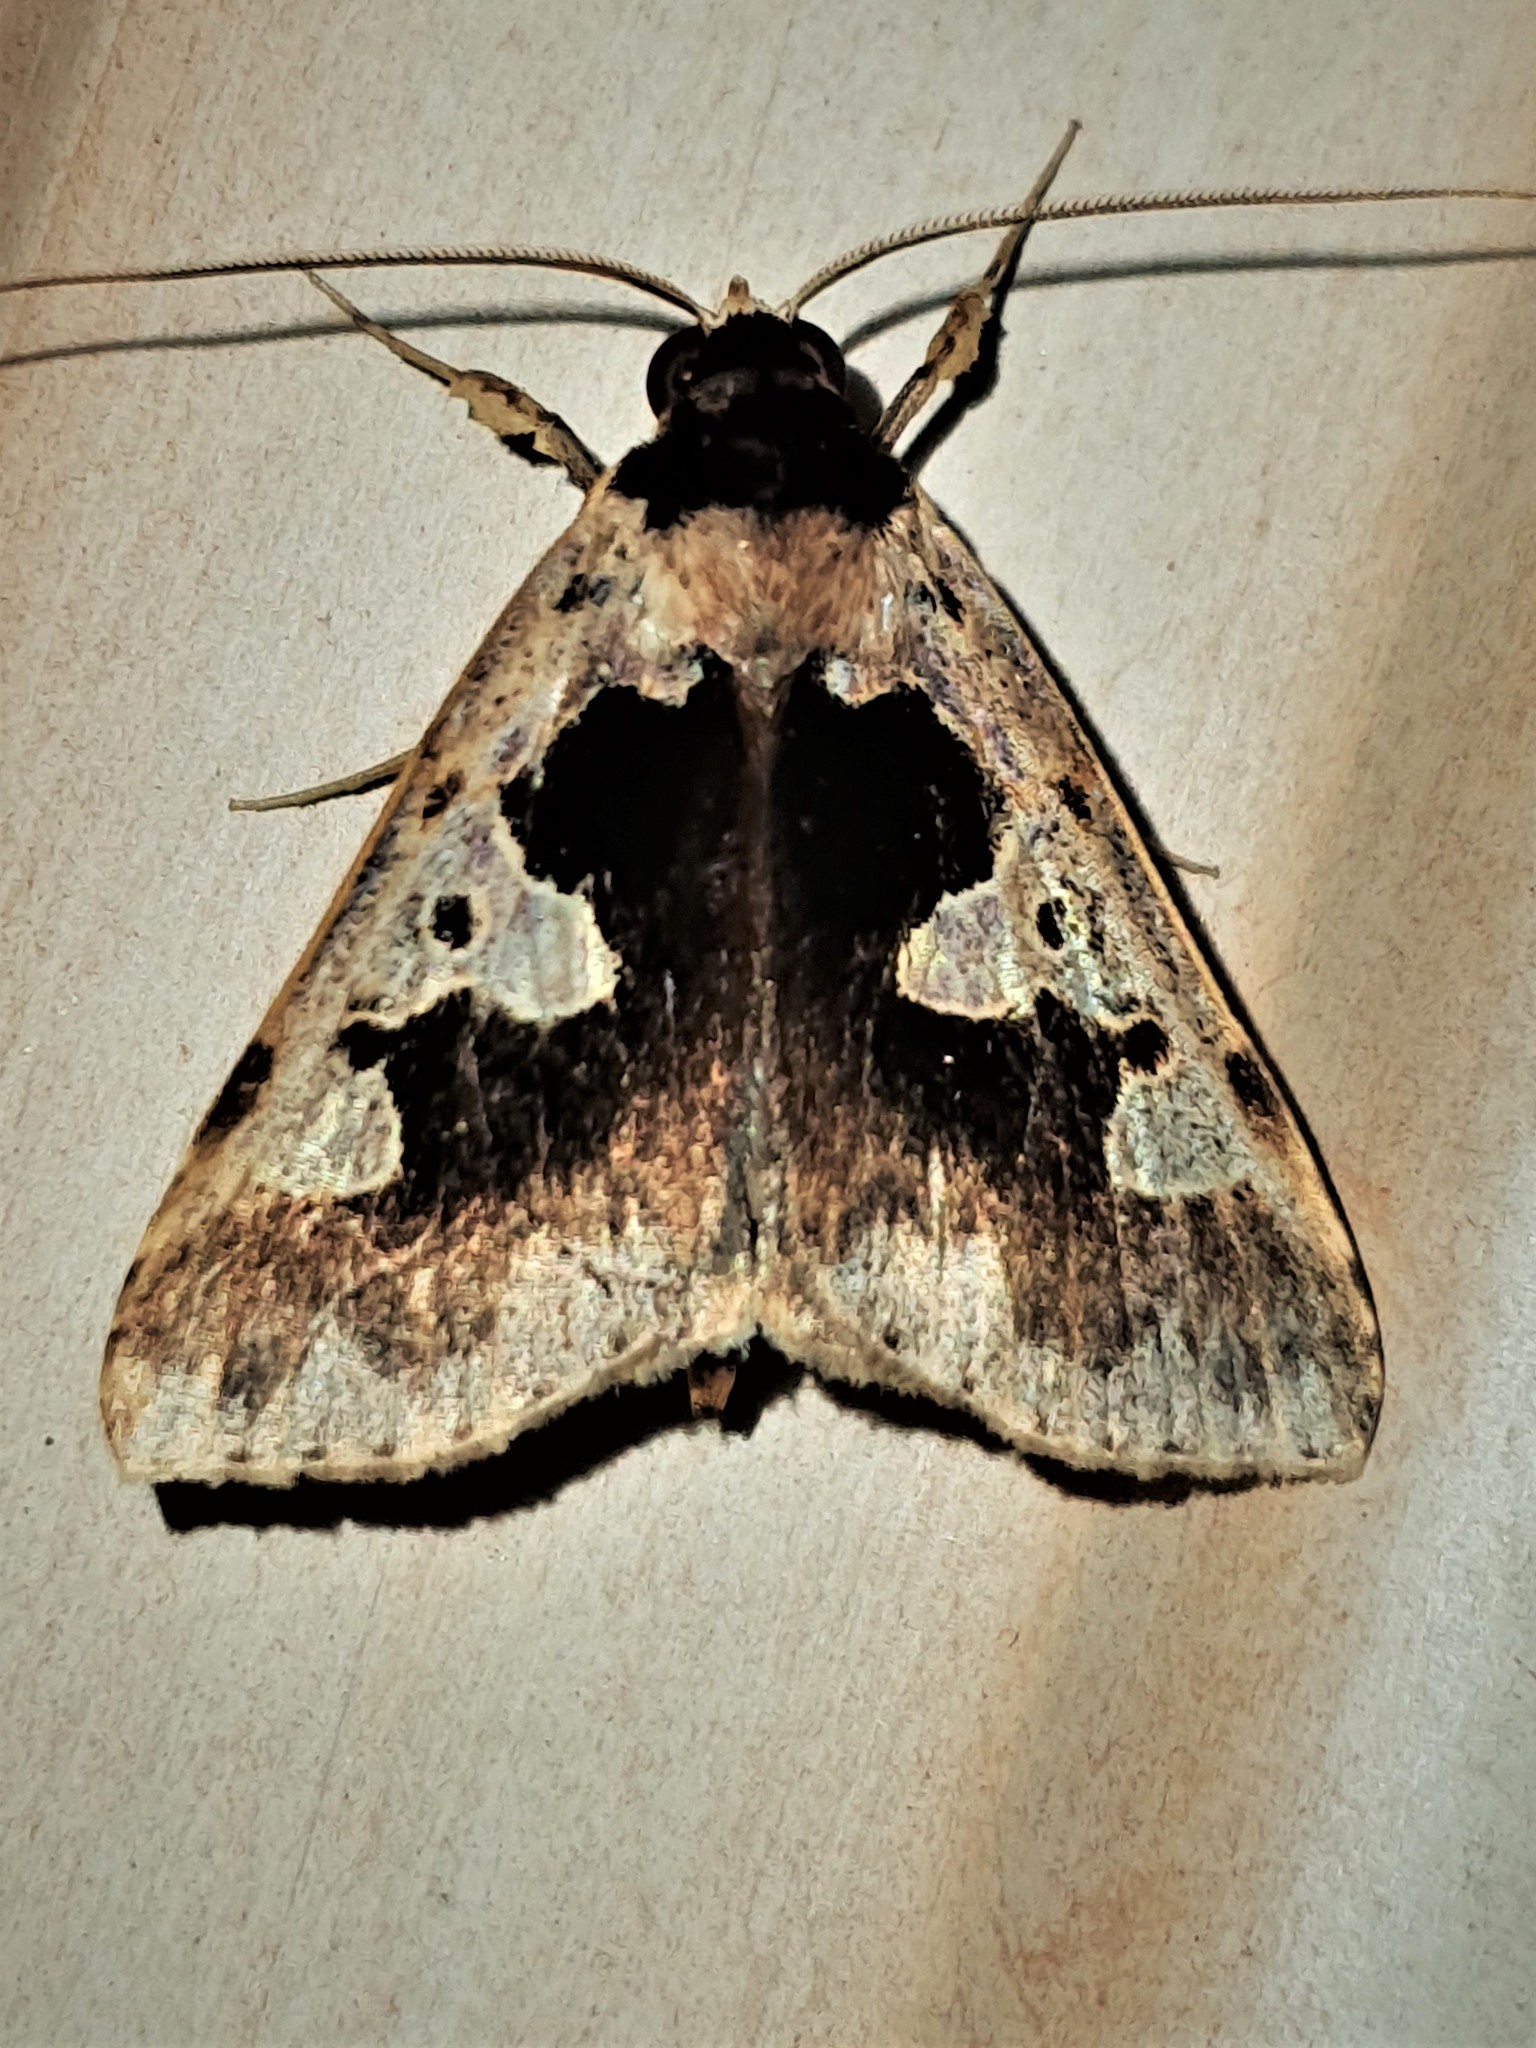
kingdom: Animalia
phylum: Arthropoda
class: Insecta
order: Lepidoptera
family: Erebidae
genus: Baniana
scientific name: Baniana gobar
